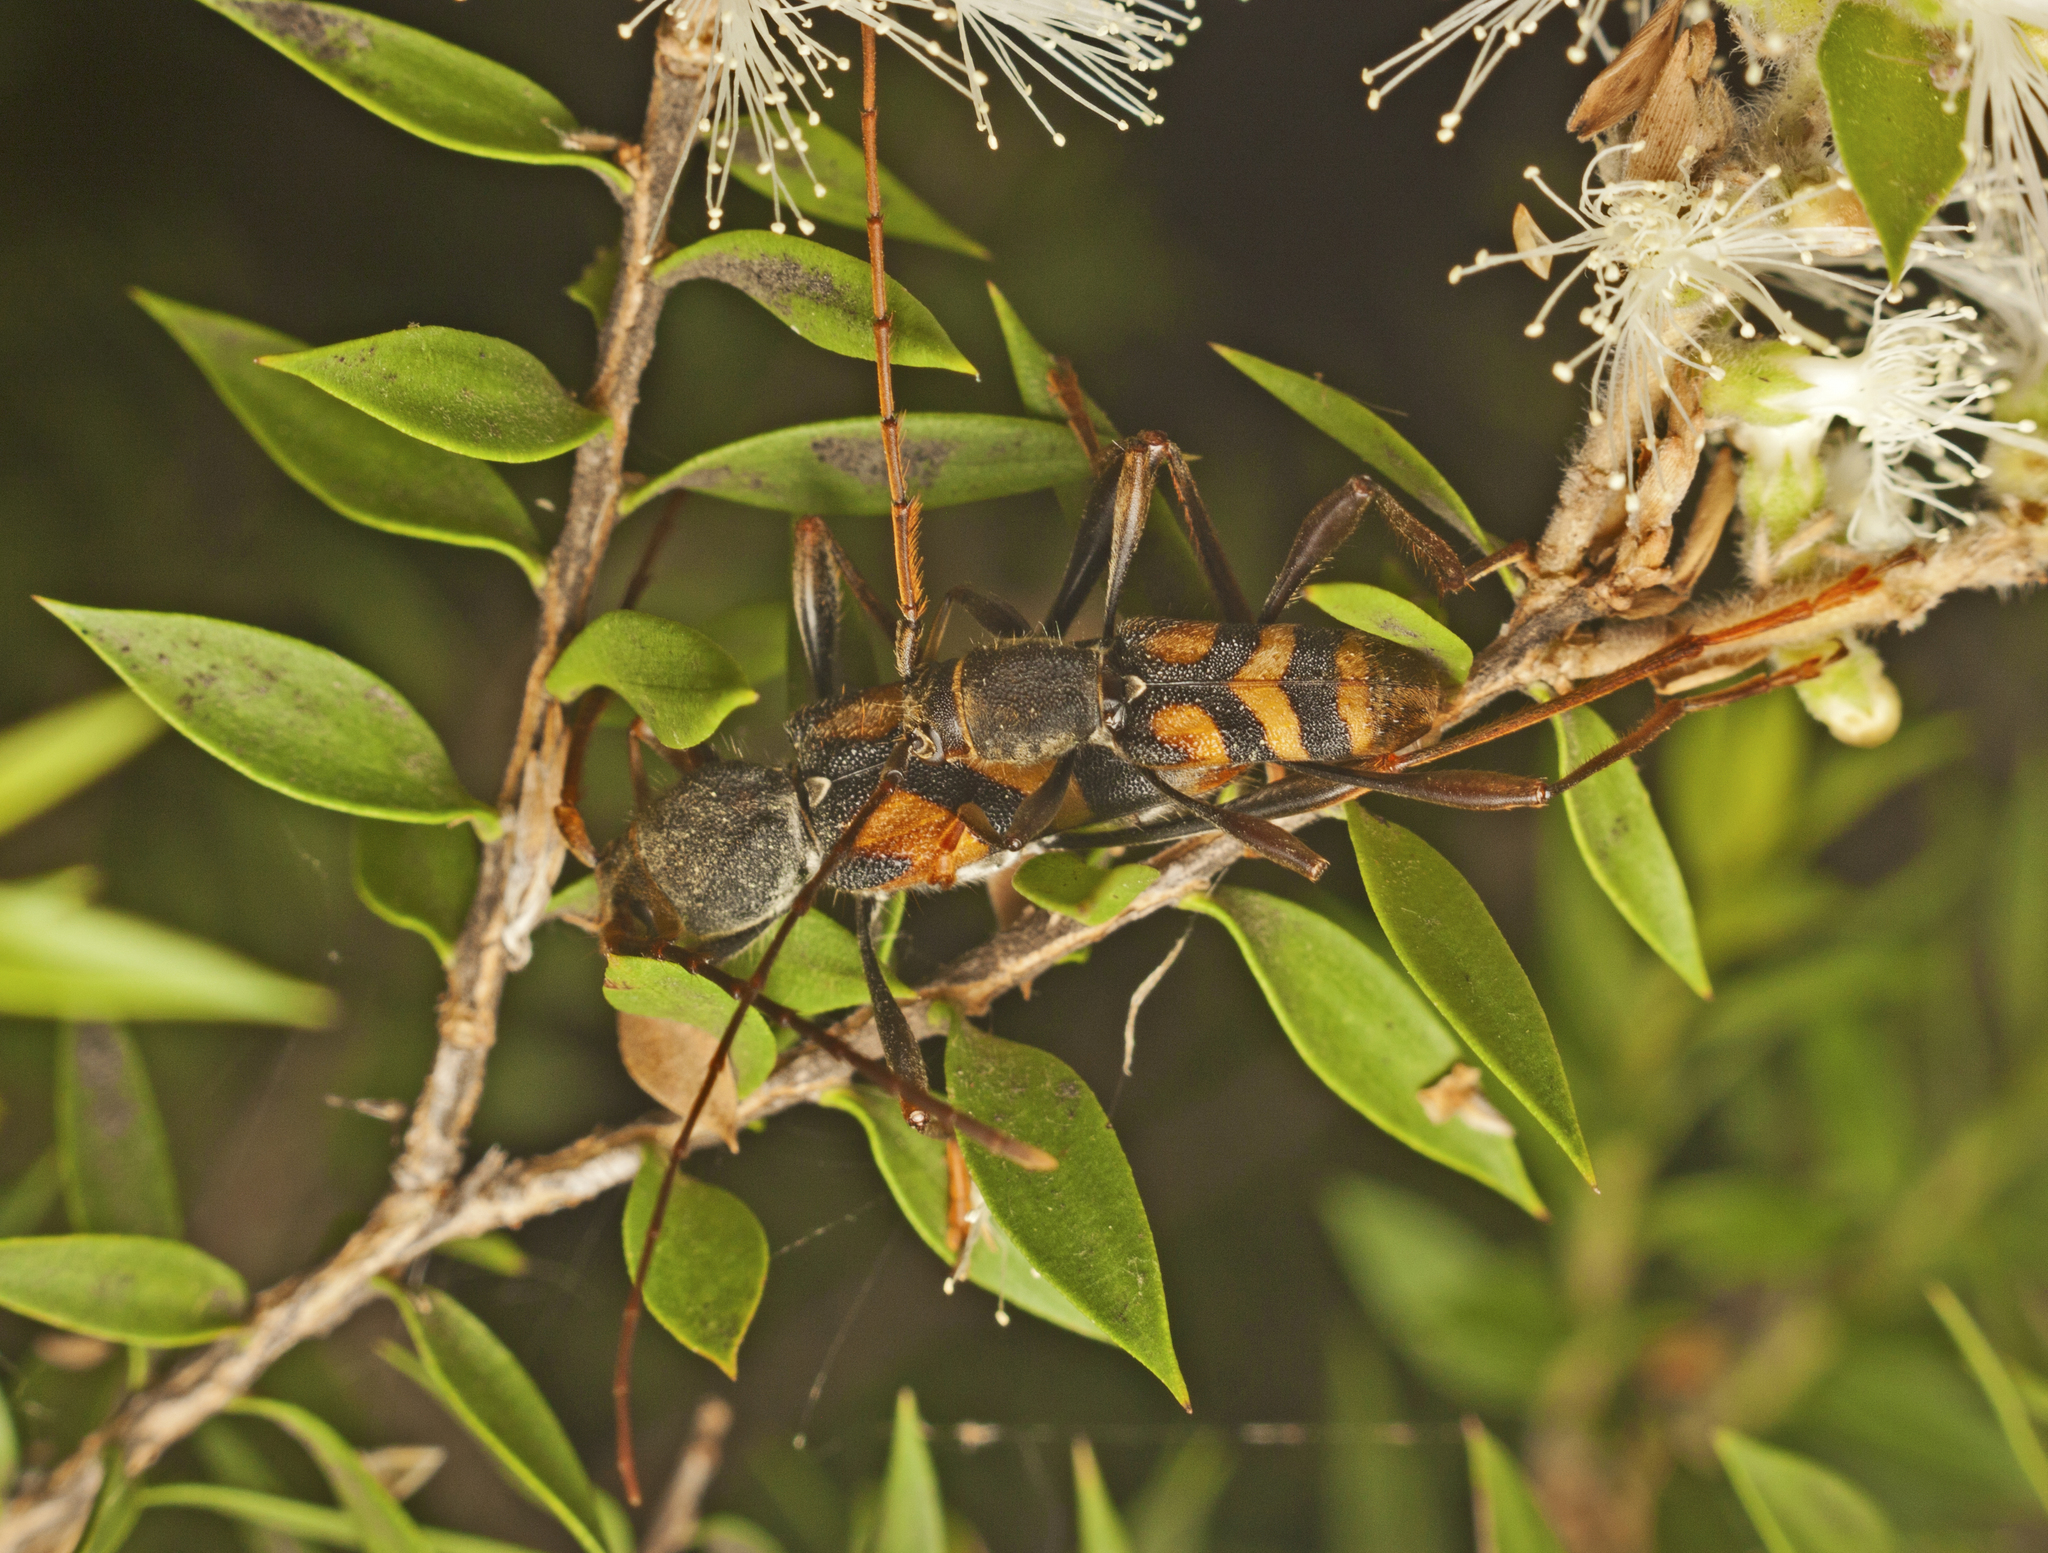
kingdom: Animalia
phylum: Arthropoda
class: Insecta
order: Coleoptera
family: Cerambycidae
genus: Aridaeus
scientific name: Aridaeus thoracicus
